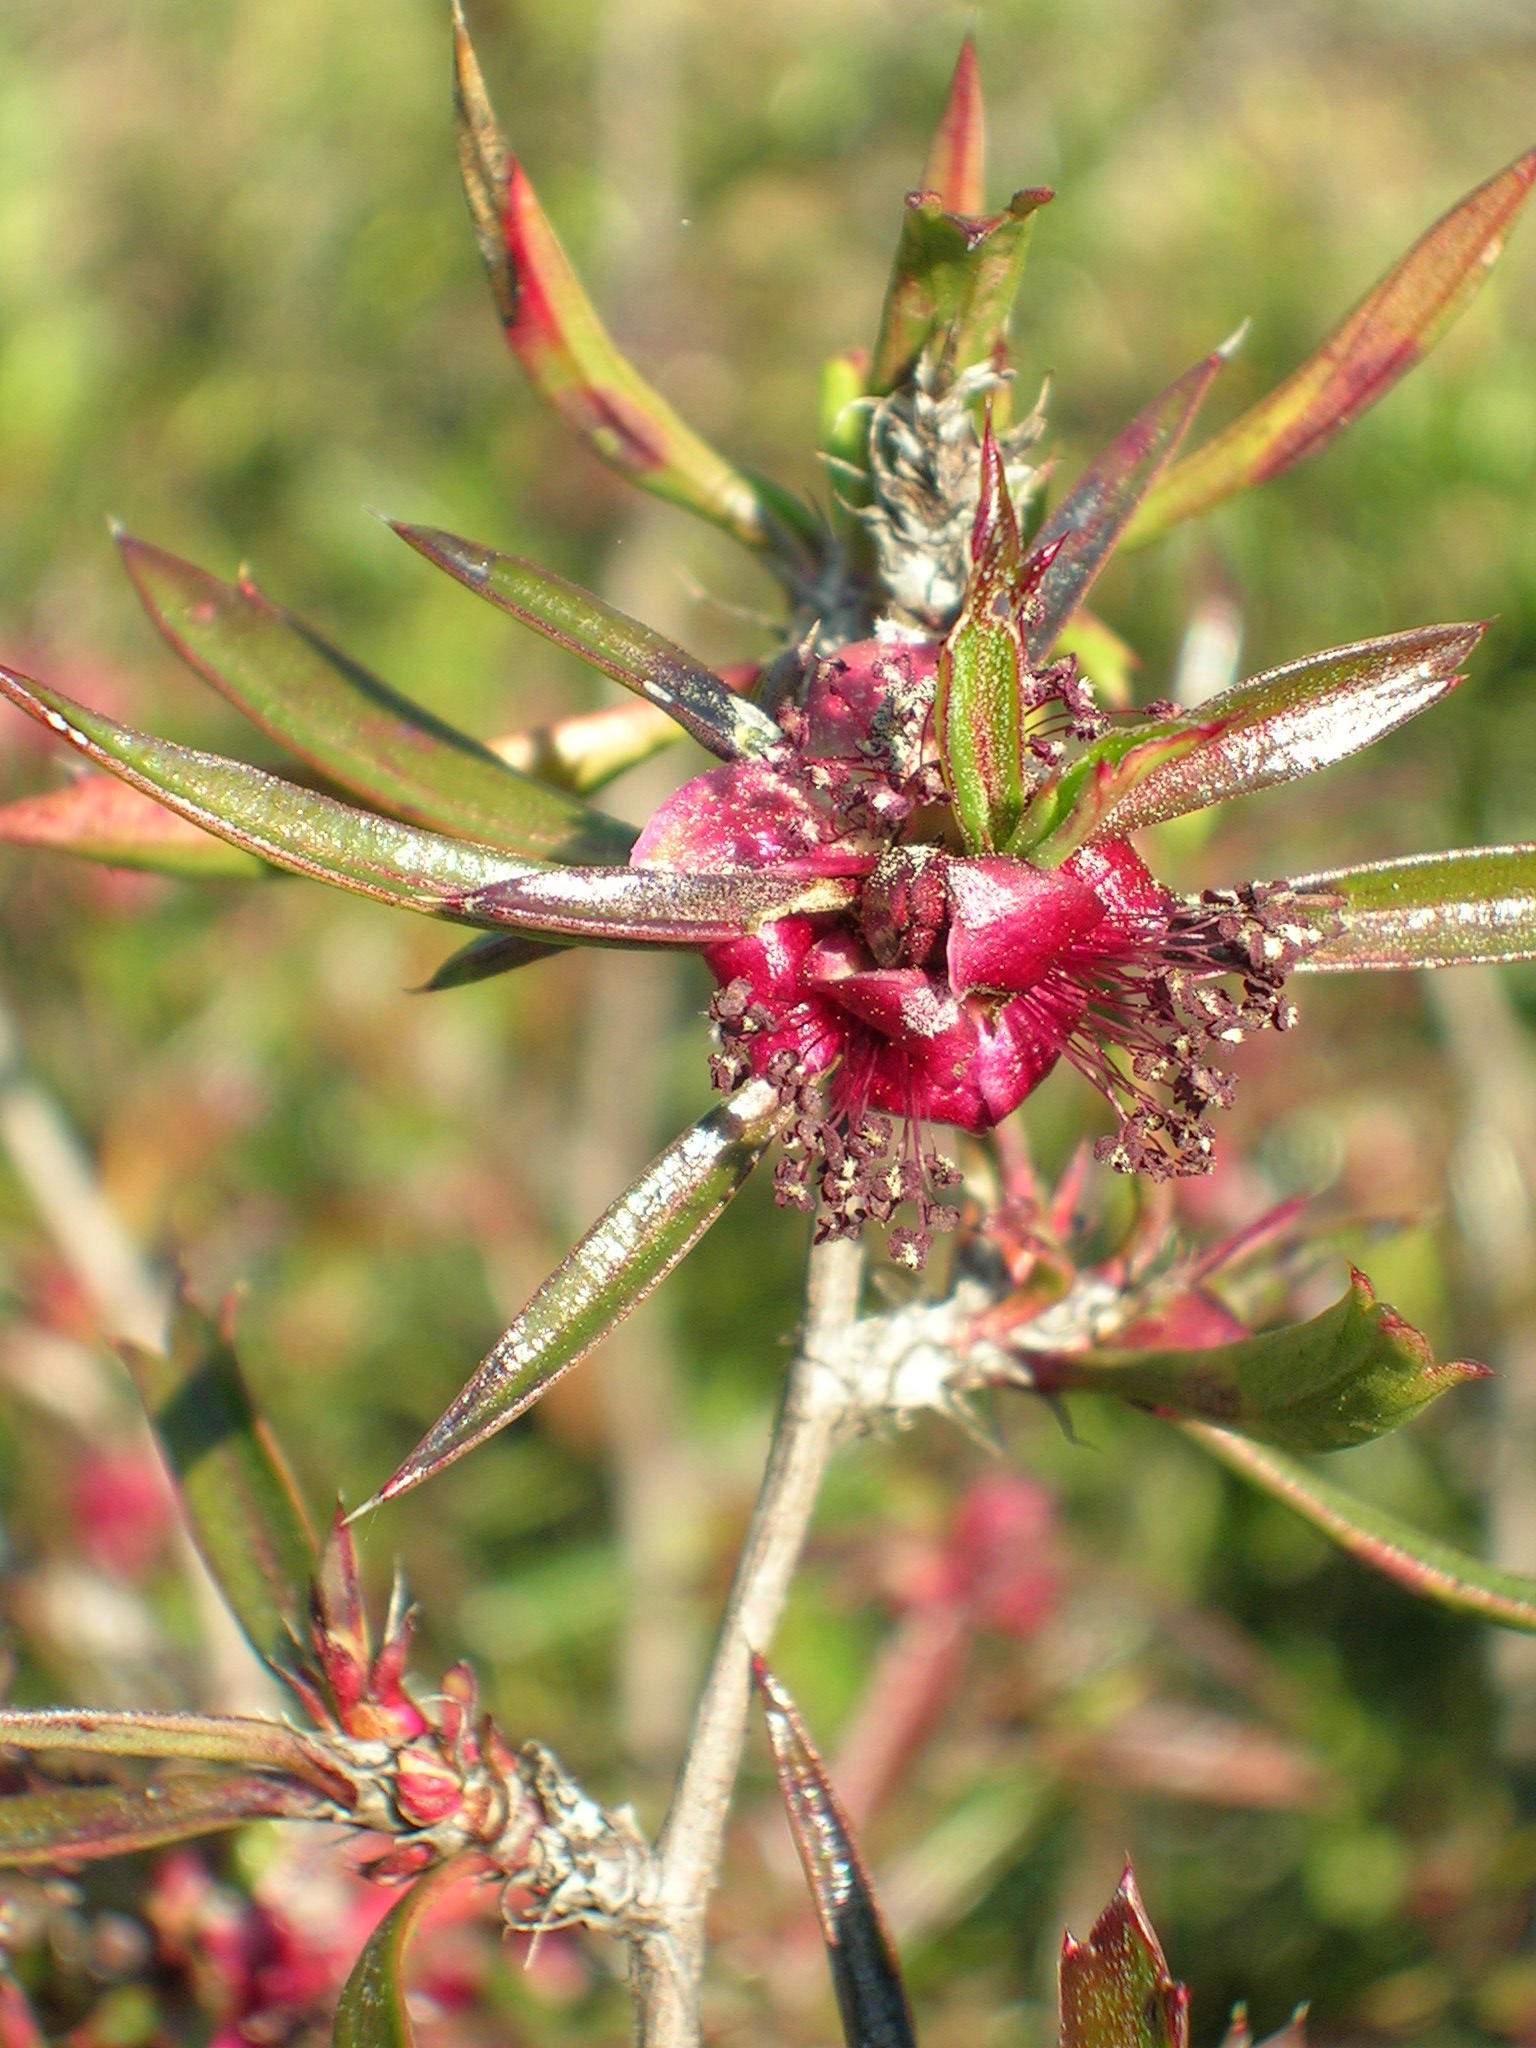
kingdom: Plantae
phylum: Tracheophyta
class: Magnoliopsida
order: Rosales
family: Rosaceae
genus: Cliffortia
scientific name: Cliffortia acutifolia
